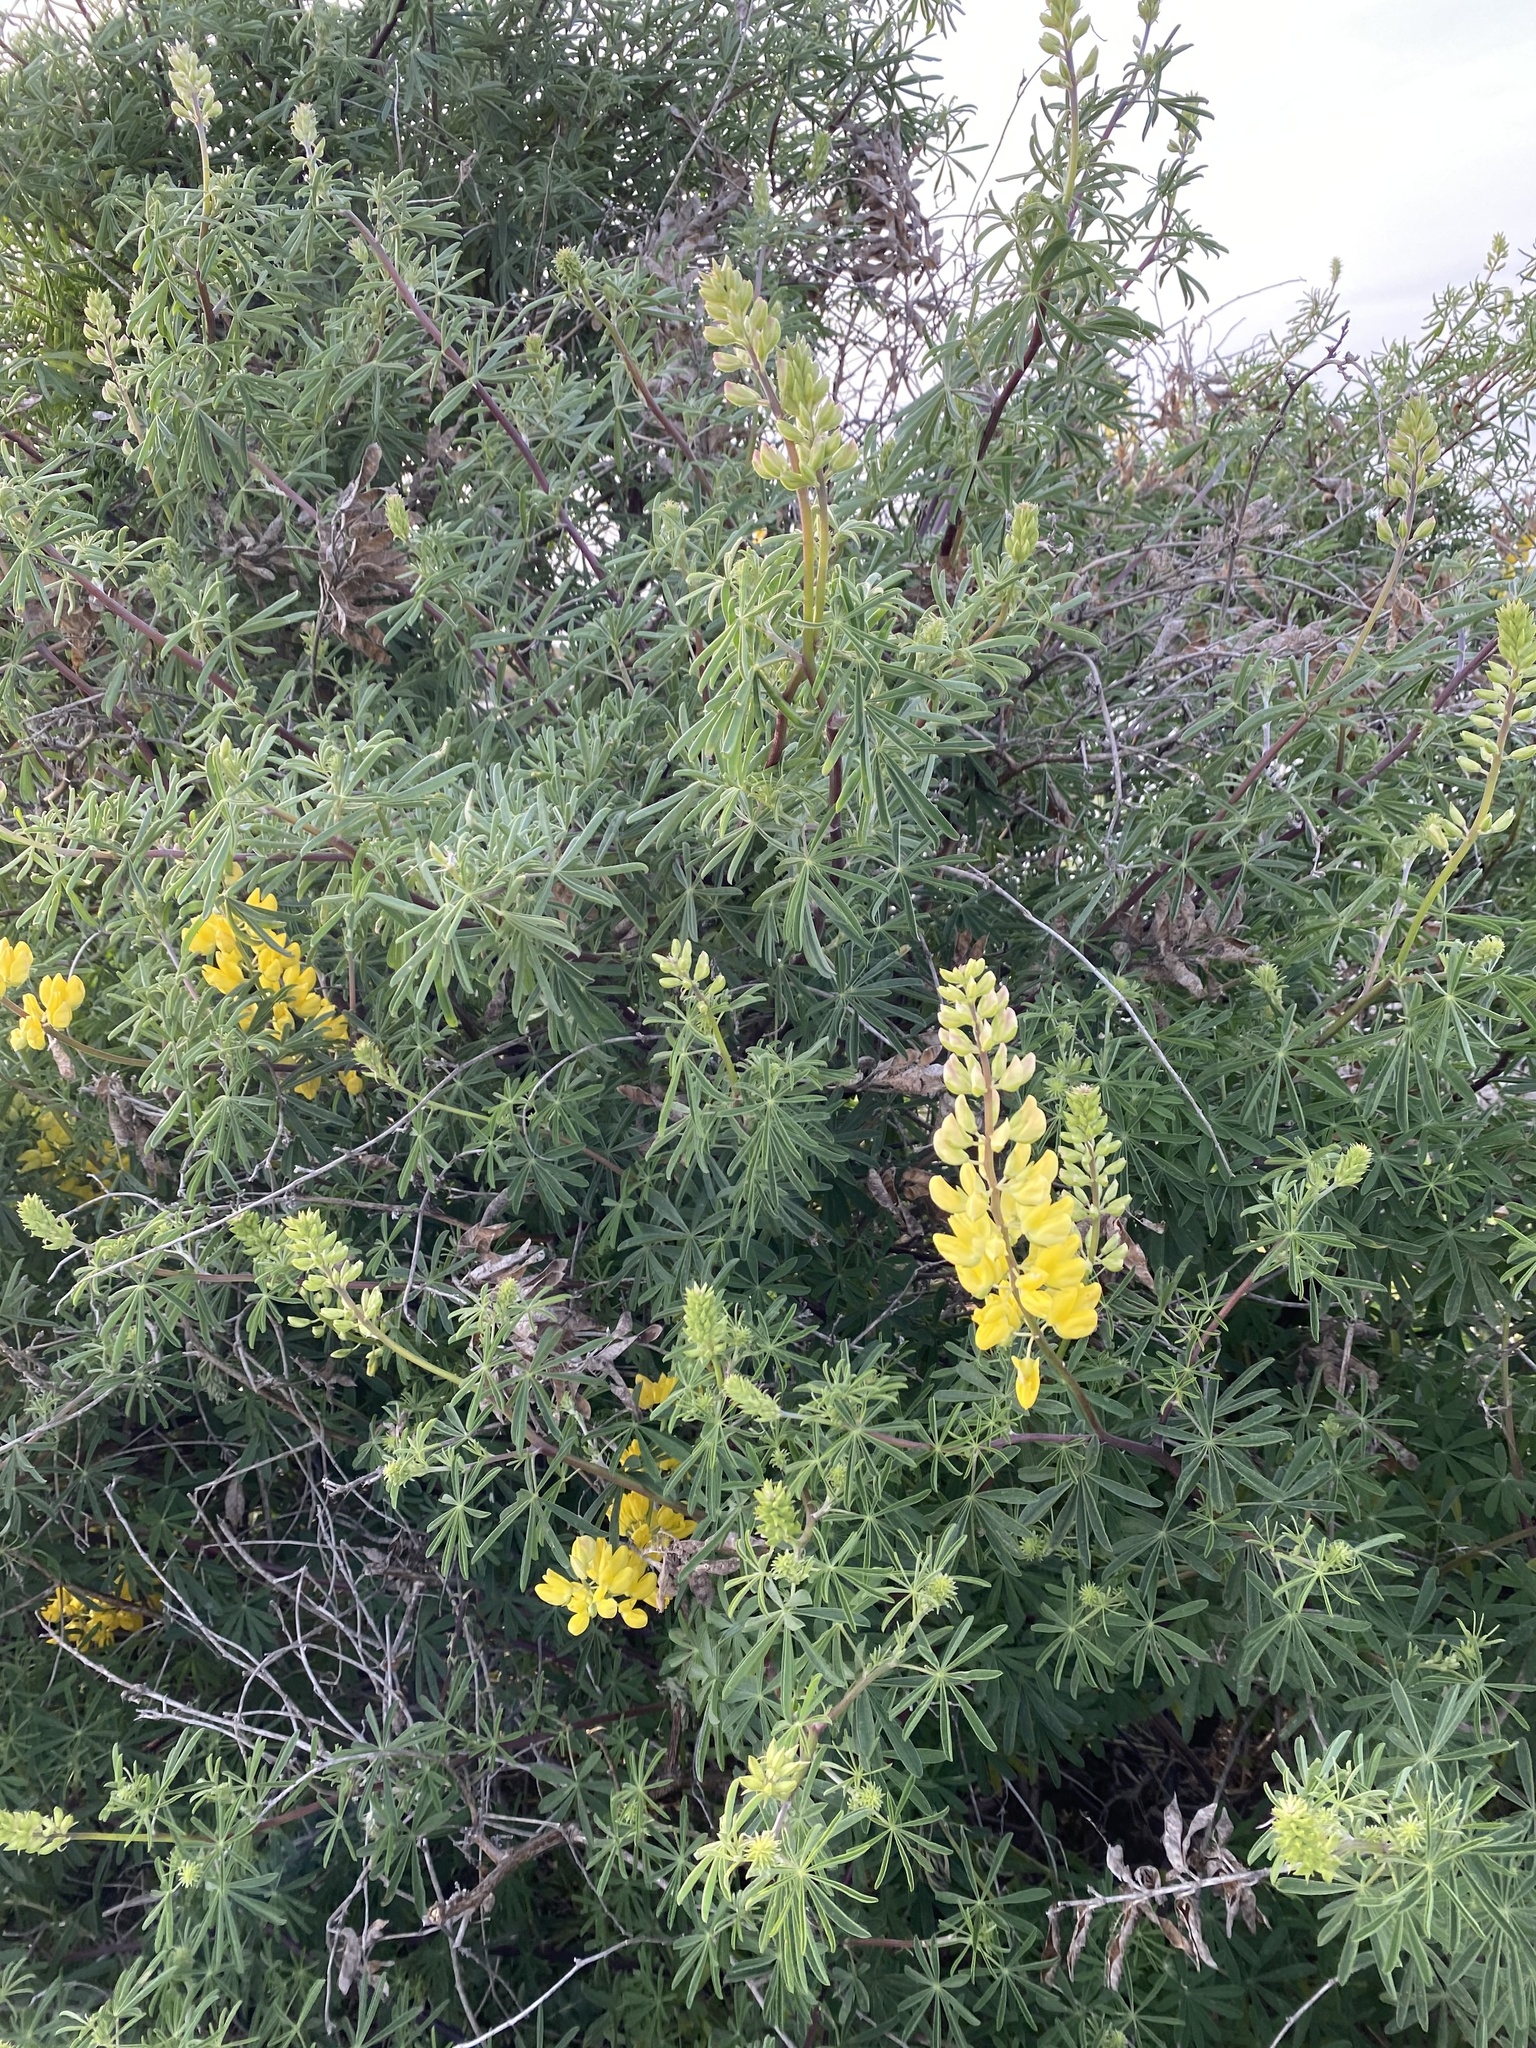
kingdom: Plantae
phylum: Tracheophyta
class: Magnoliopsida
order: Fabales
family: Fabaceae
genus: Lupinus
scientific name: Lupinus arboreus
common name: Yellow bush lupine
